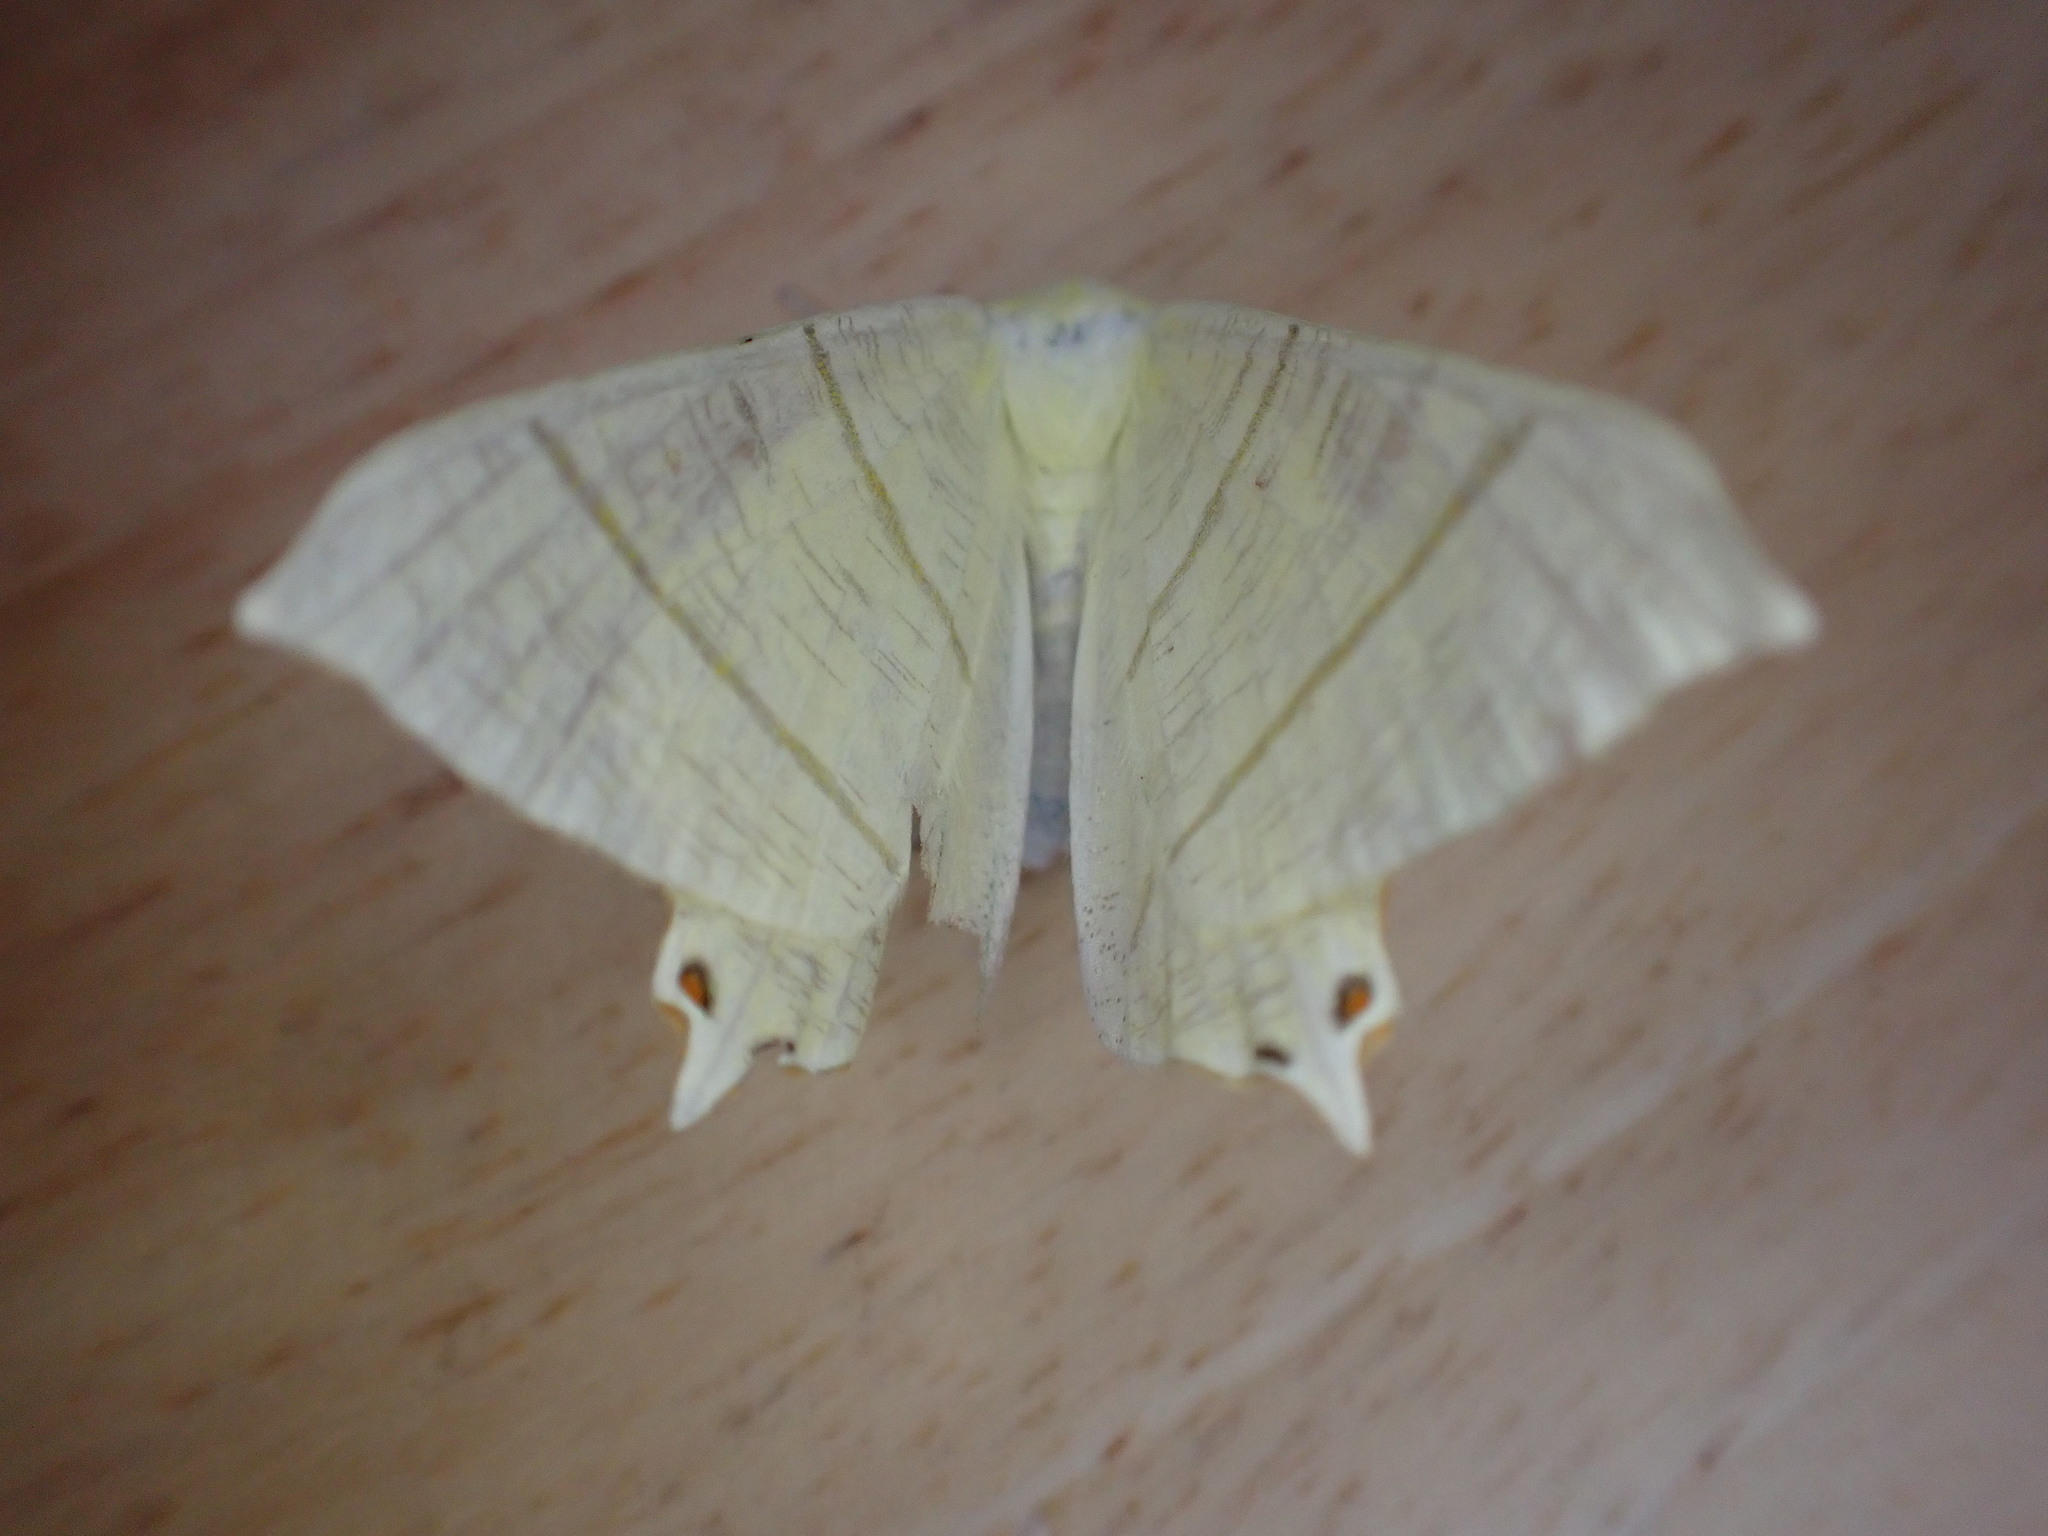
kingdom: Animalia
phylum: Arthropoda
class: Insecta
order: Lepidoptera
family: Geometridae
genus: Ourapteryx
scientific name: Ourapteryx sambucaria
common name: Swallow-tailed moth
